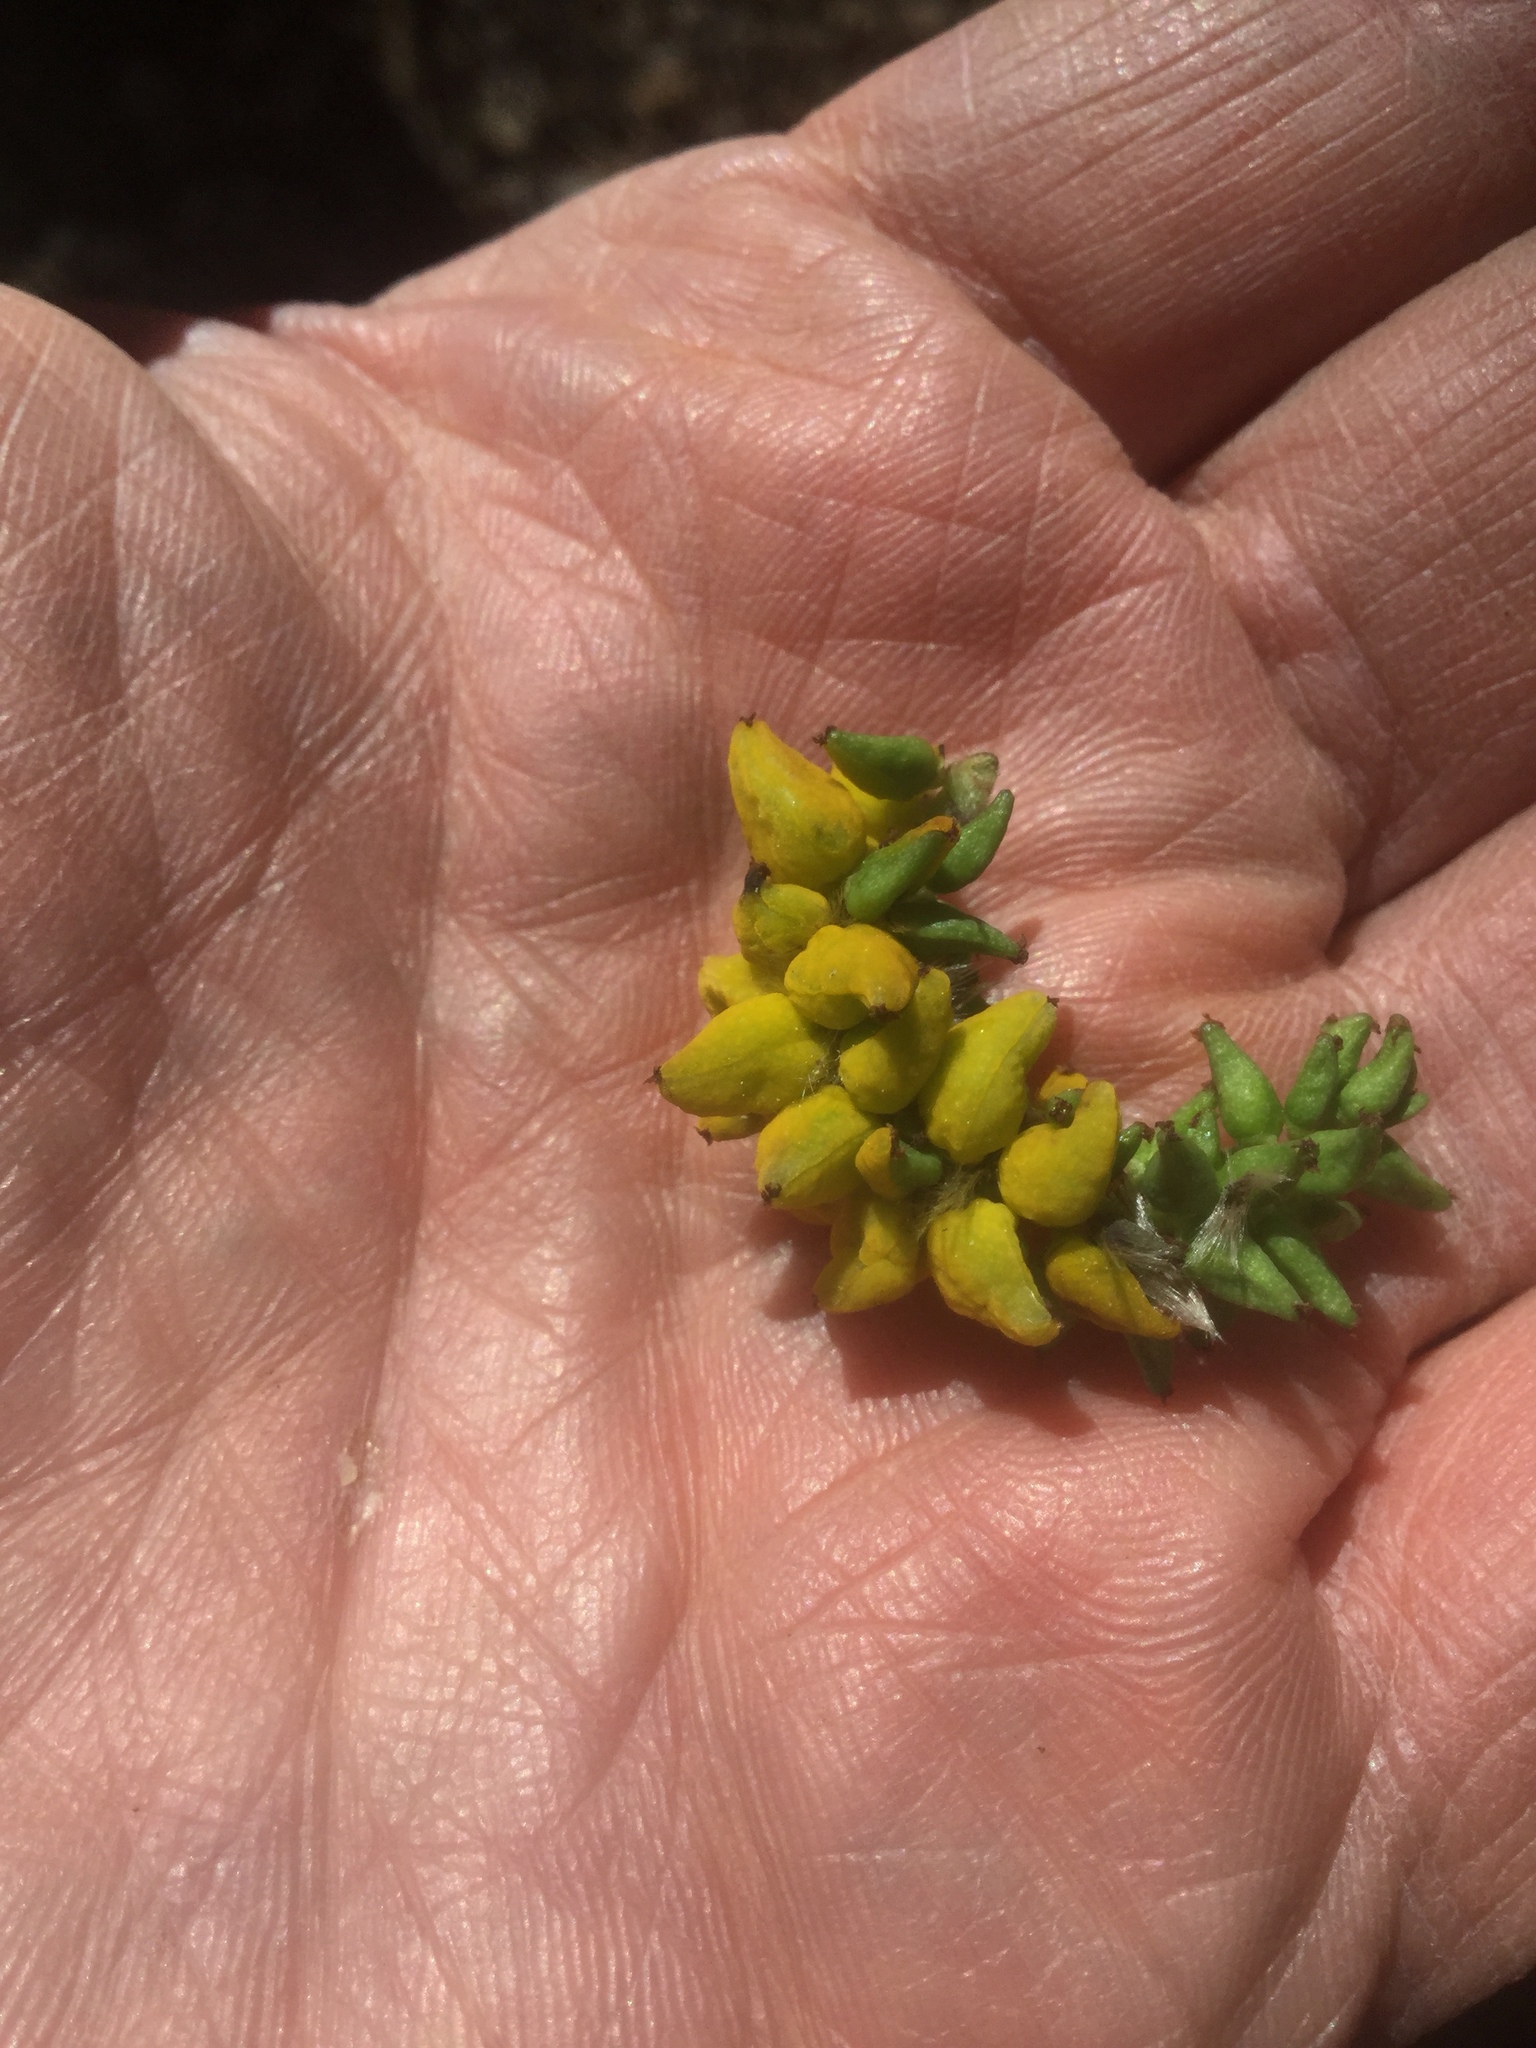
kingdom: Fungi
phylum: Ascomycota
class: Taphrinomycetes
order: Taphrinales
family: Taphrinaceae
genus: Taphrina
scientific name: Taphrina johansonii
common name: Aspen tongue
